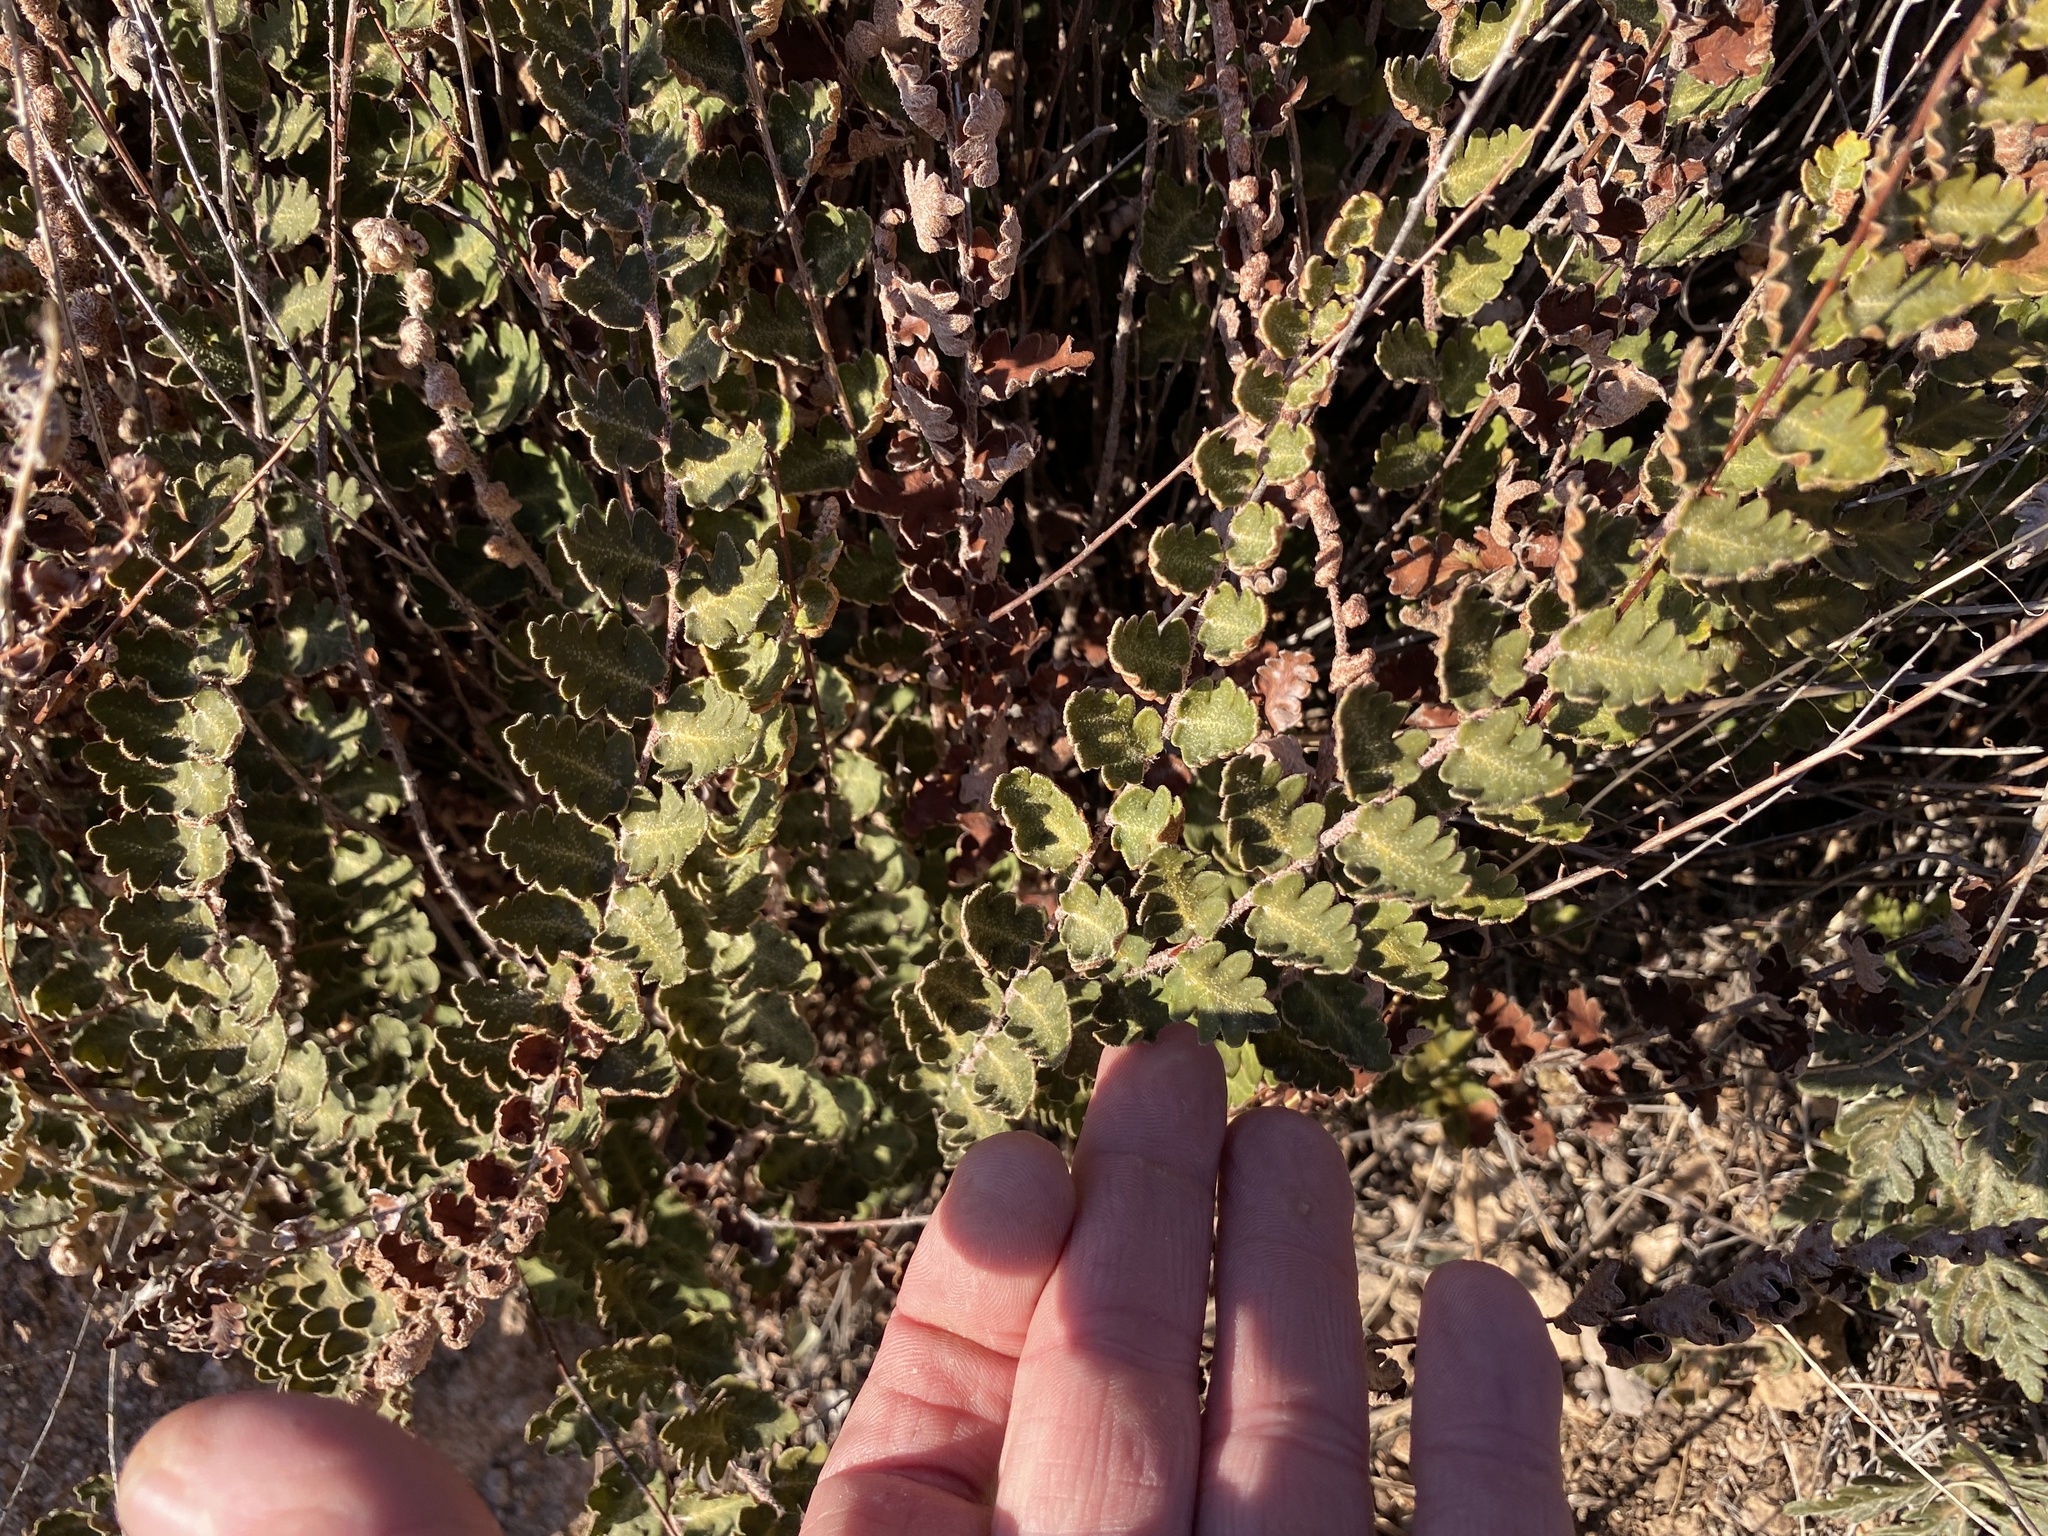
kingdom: Plantae
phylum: Tracheophyta
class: Polypodiopsida
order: Polypodiales
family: Pteridaceae
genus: Astrolepis
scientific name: Astrolepis sinuata
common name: Wavy scaly cloakfern
